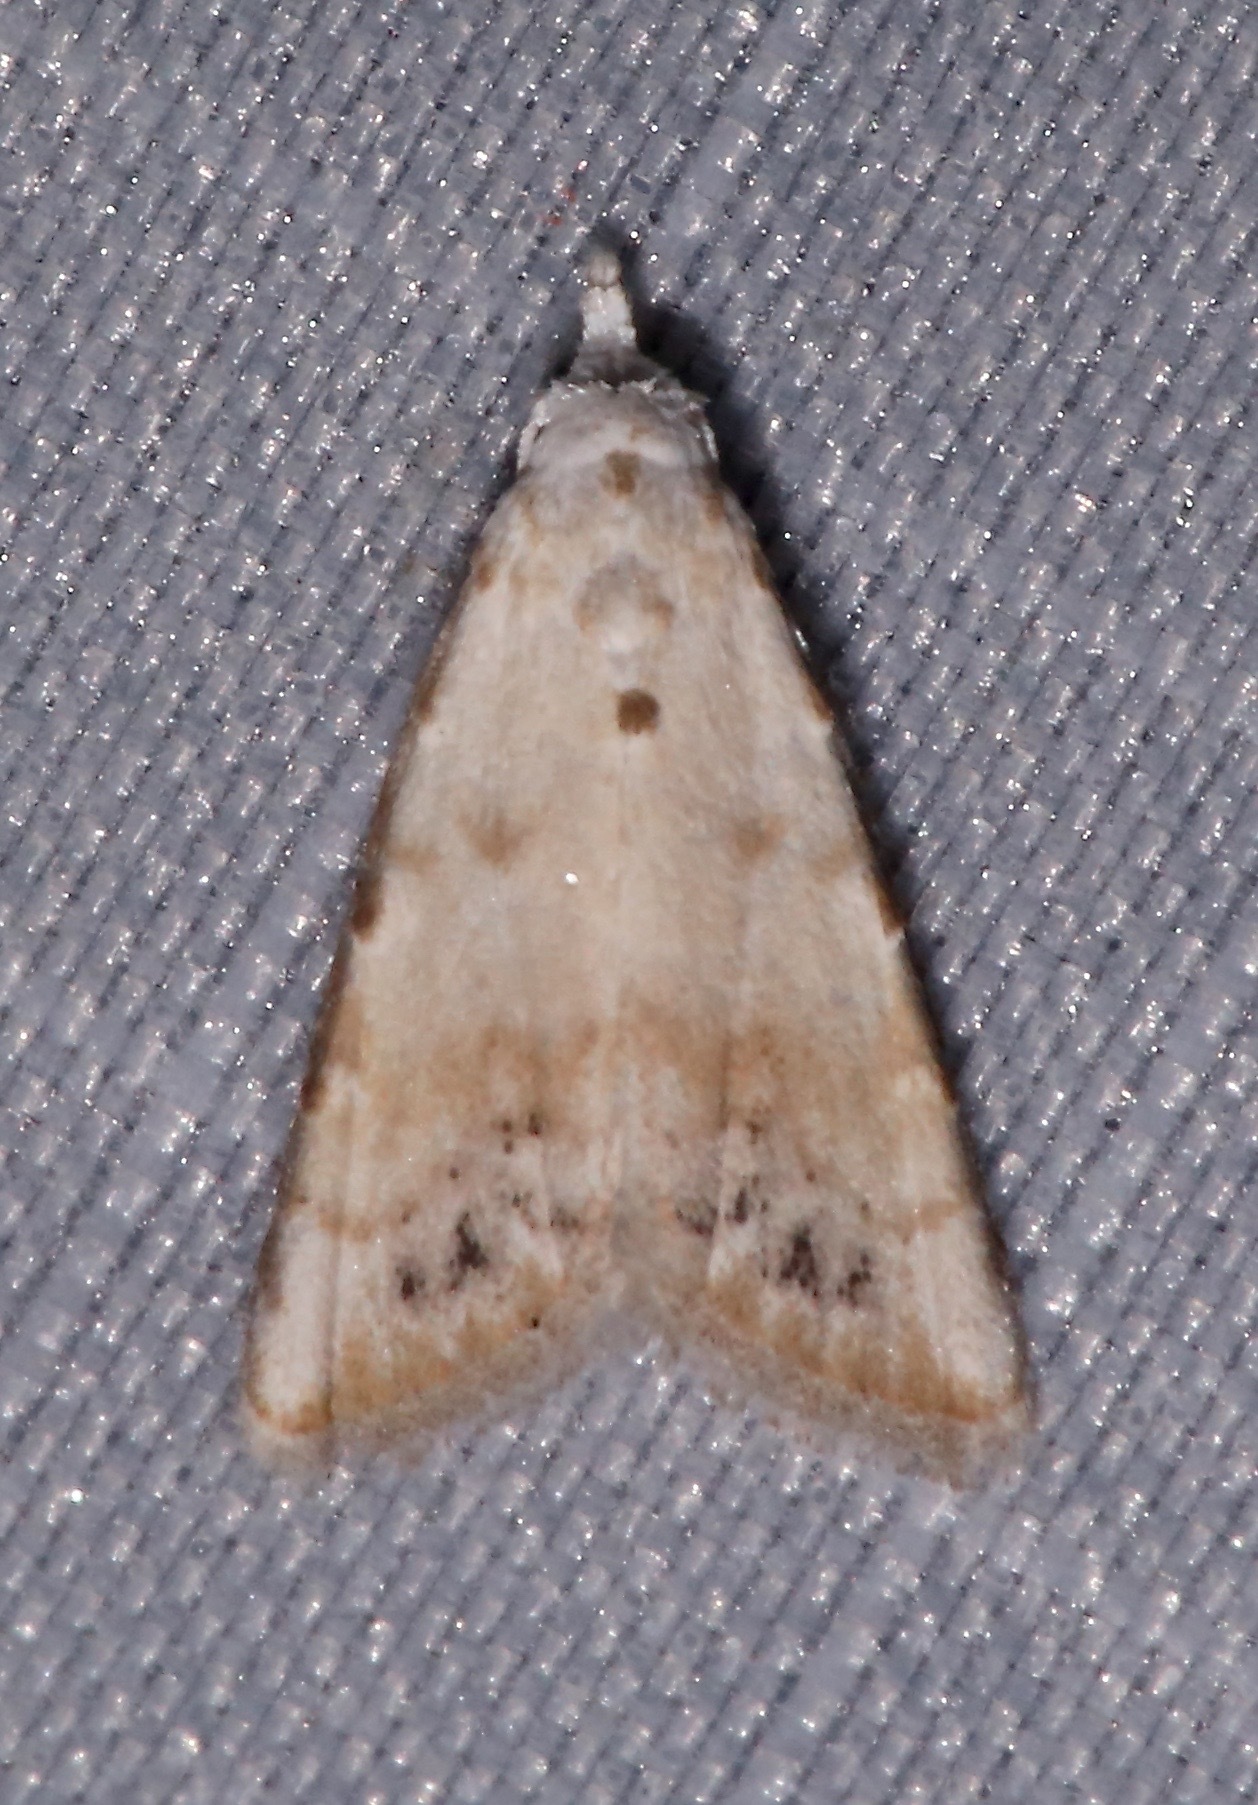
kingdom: Animalia
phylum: Arthropoda
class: Insecta
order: Lepidoptera
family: Nolidae
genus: Nola
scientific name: Nola cereella
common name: Sorghum webworm moth
